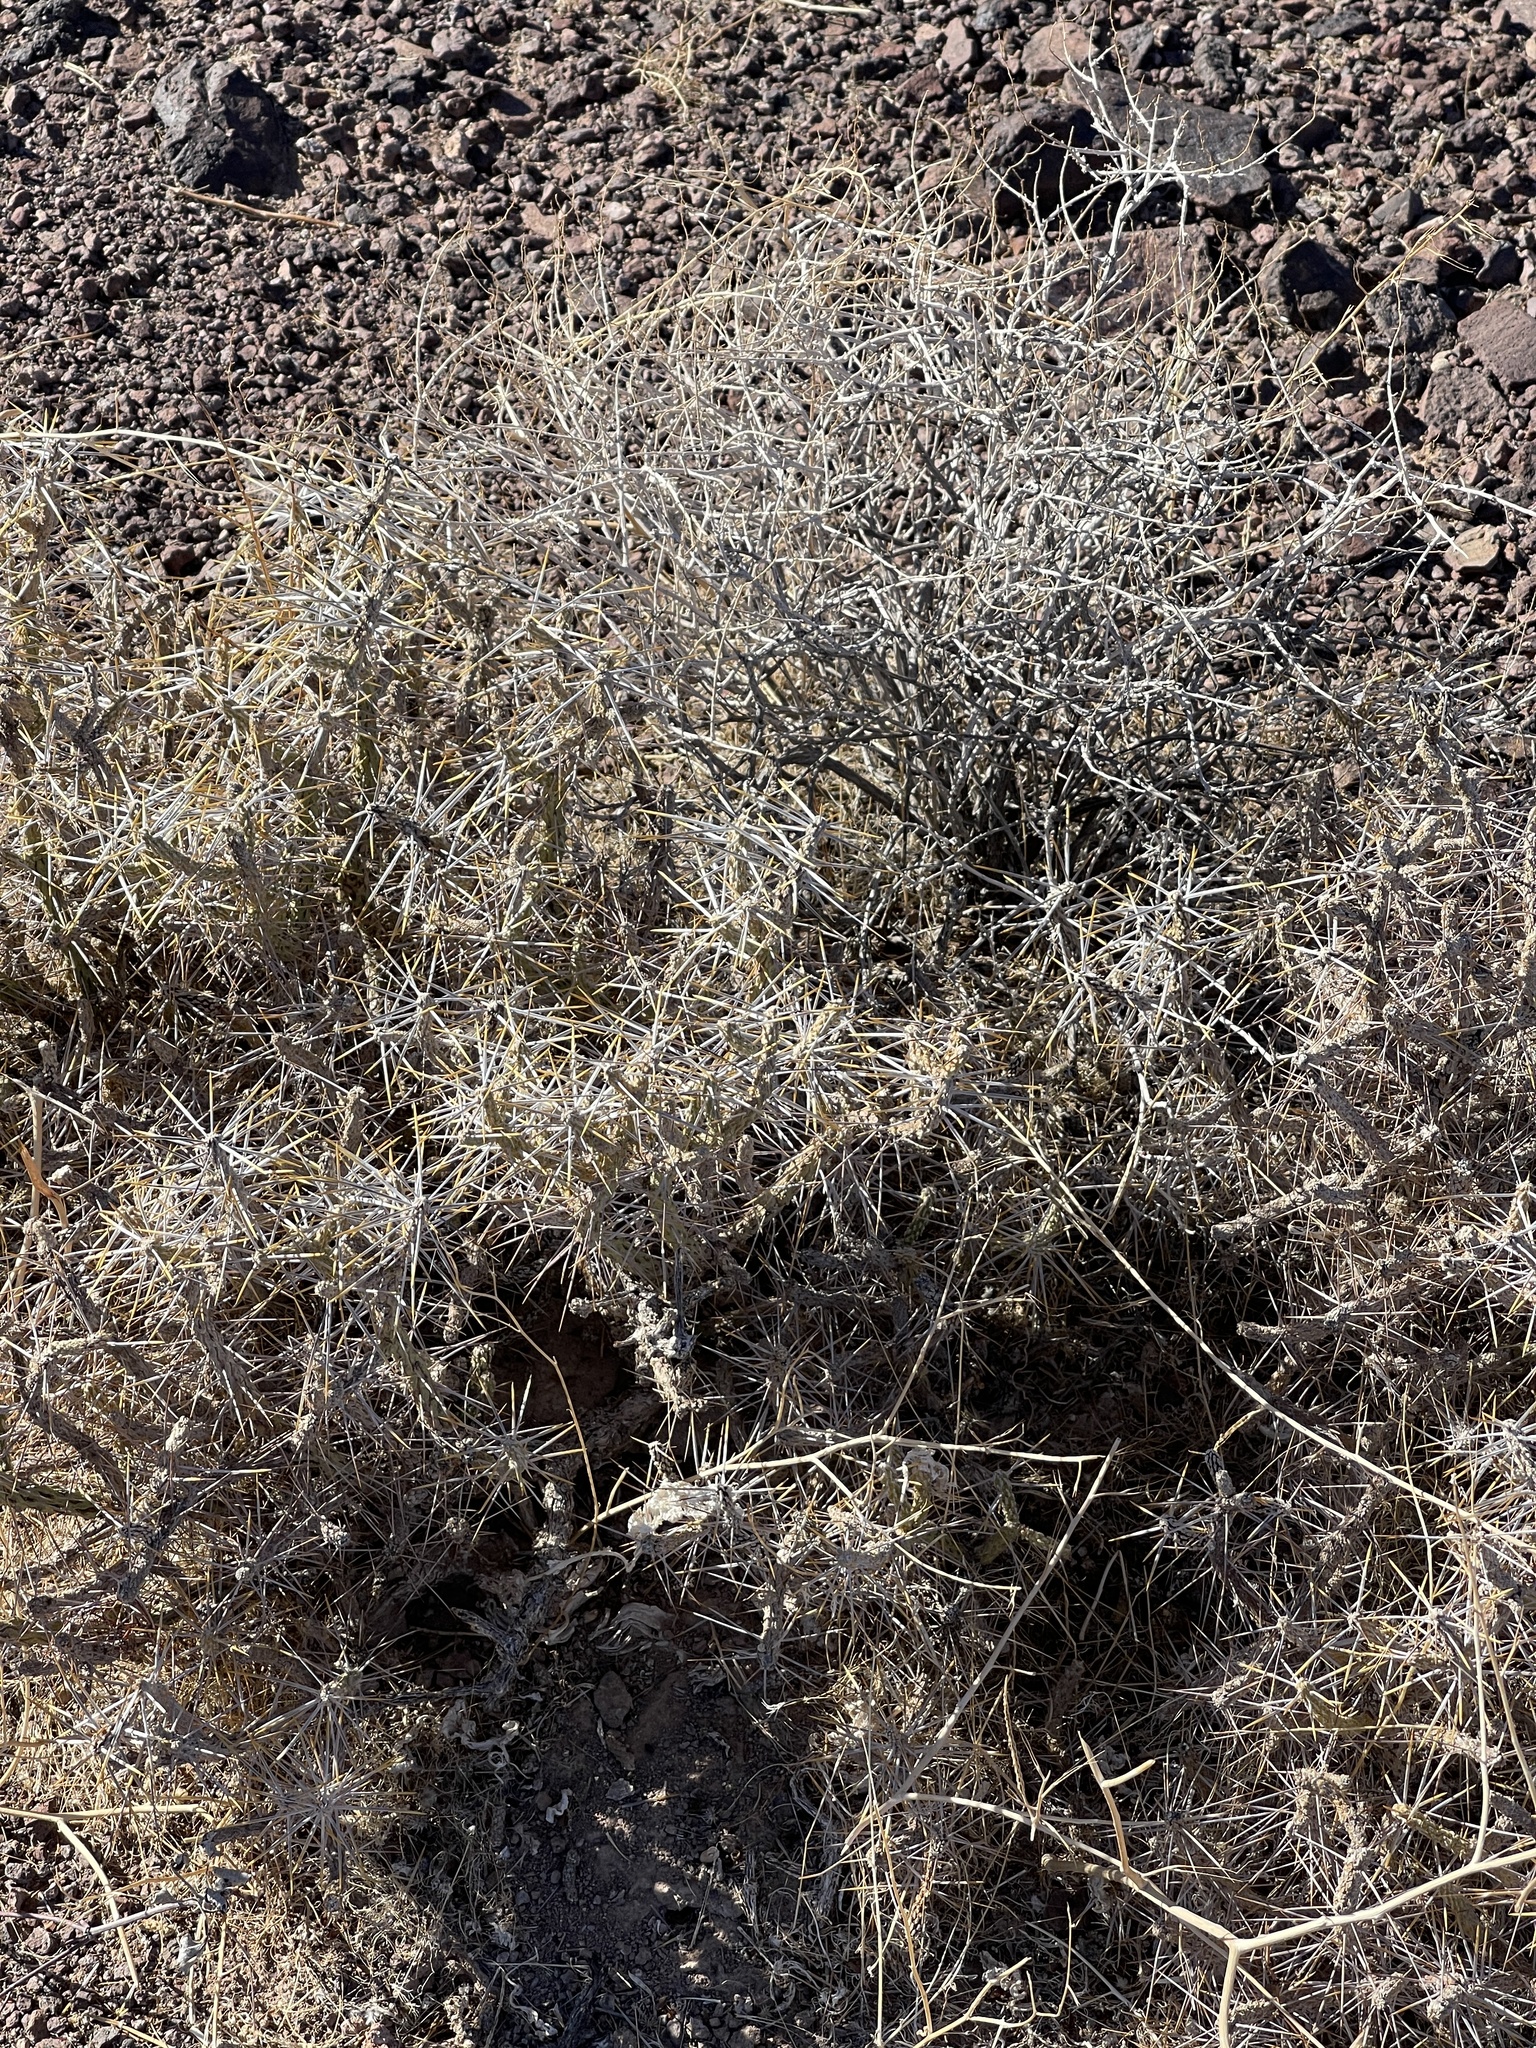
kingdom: Plantae
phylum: Tracheophyta
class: Magnoliopsida
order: Caryophyllales
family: Cactaceae
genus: Cylindropuntia
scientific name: Cylindropuntia ramosissima
